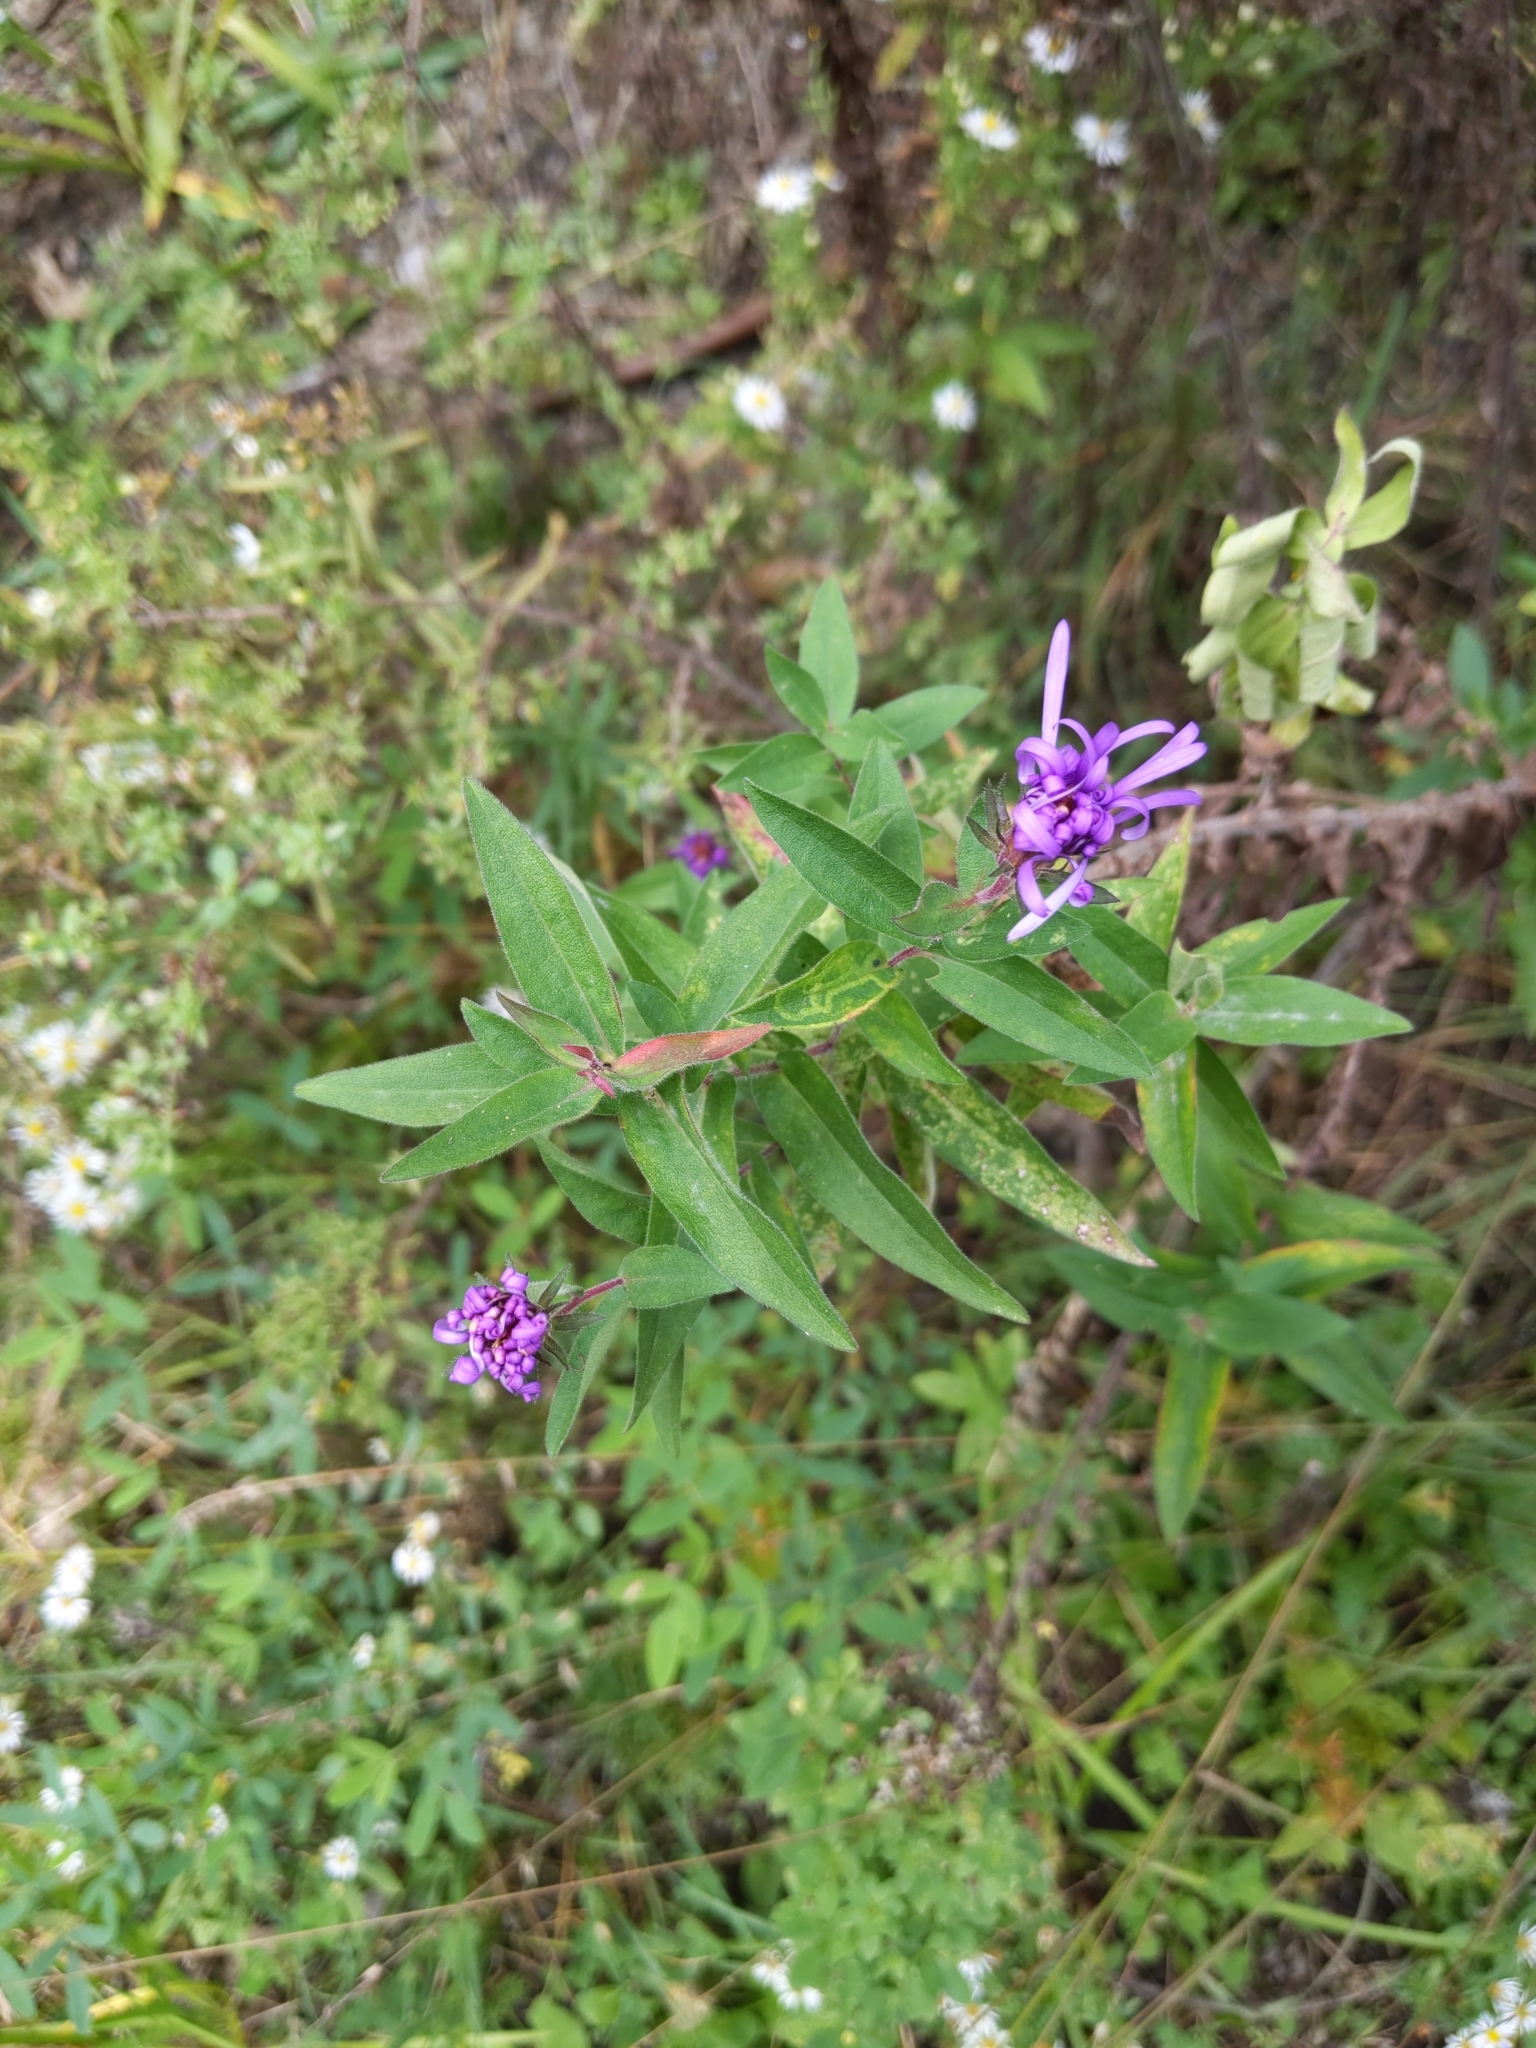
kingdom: Plantae
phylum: Tracheophyta
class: Magnoliopsida
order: Asterales
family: Asteraceae
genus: Symphyotrichum
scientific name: Symphyotrichum novae-angliae
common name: Michaelmas daisy
